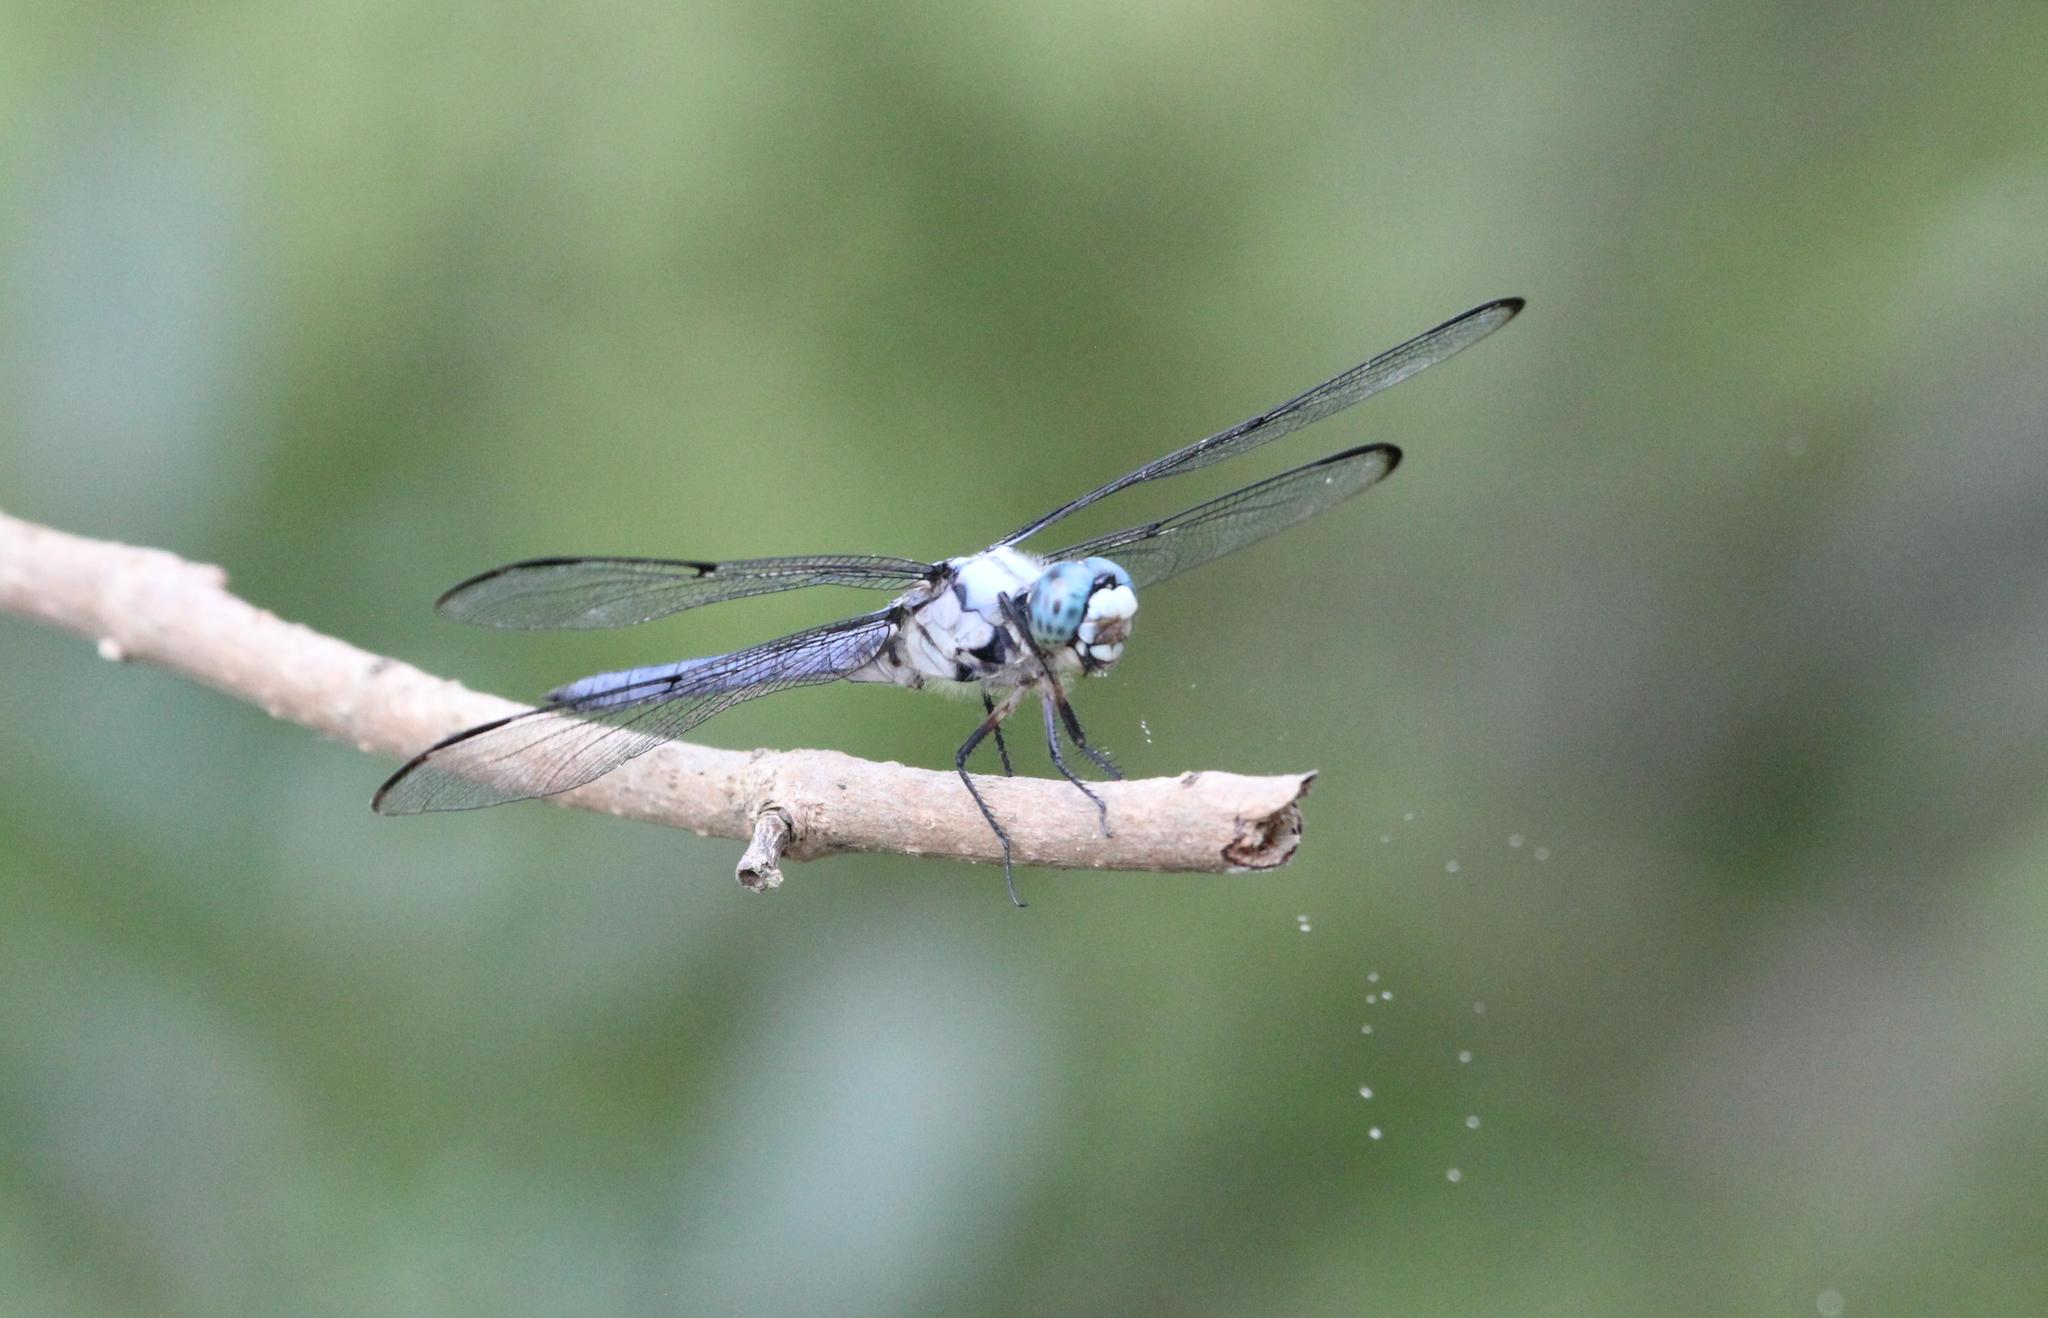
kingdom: Animalia
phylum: Arthropoda
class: Insecta
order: Odonata
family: Libellulidae
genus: Libellula
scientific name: Libellula vibrans
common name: Great blue skimmer
